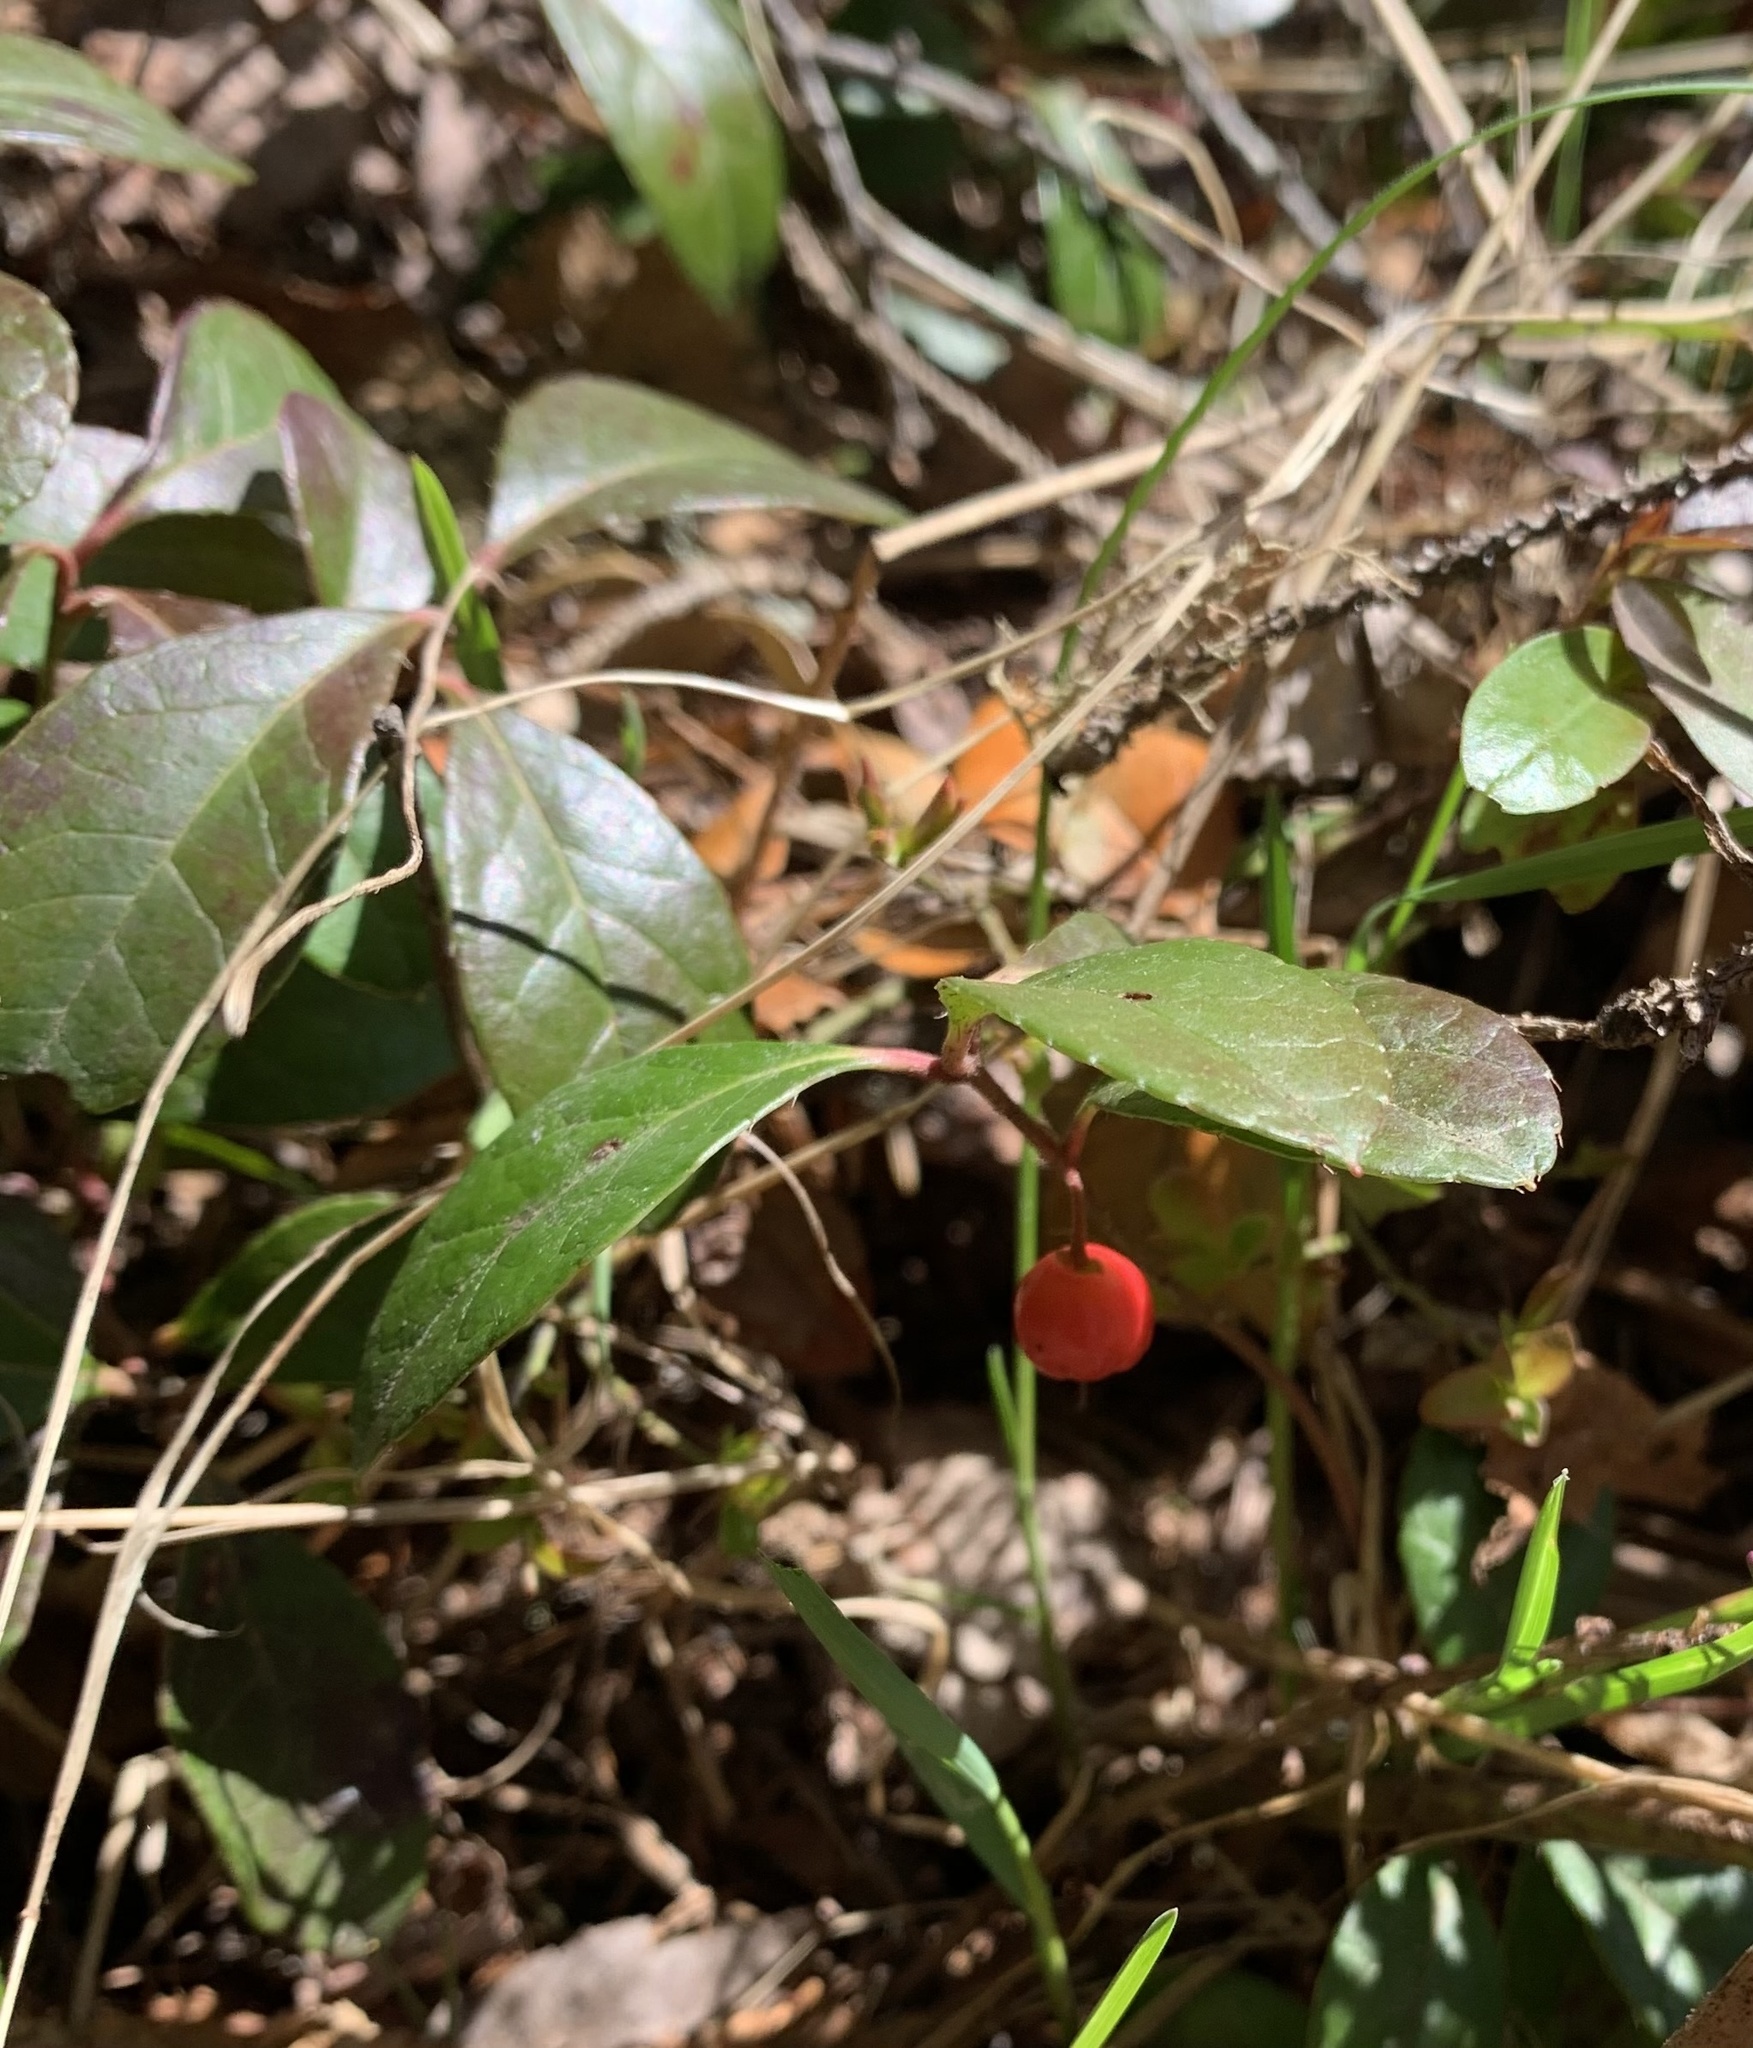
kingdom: Plantae
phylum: Tracheophyta
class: Magnoliopsida
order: Ericales
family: Ericaceae
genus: Gaultheria
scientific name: Gaultheria procumbens
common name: Checkerberry
